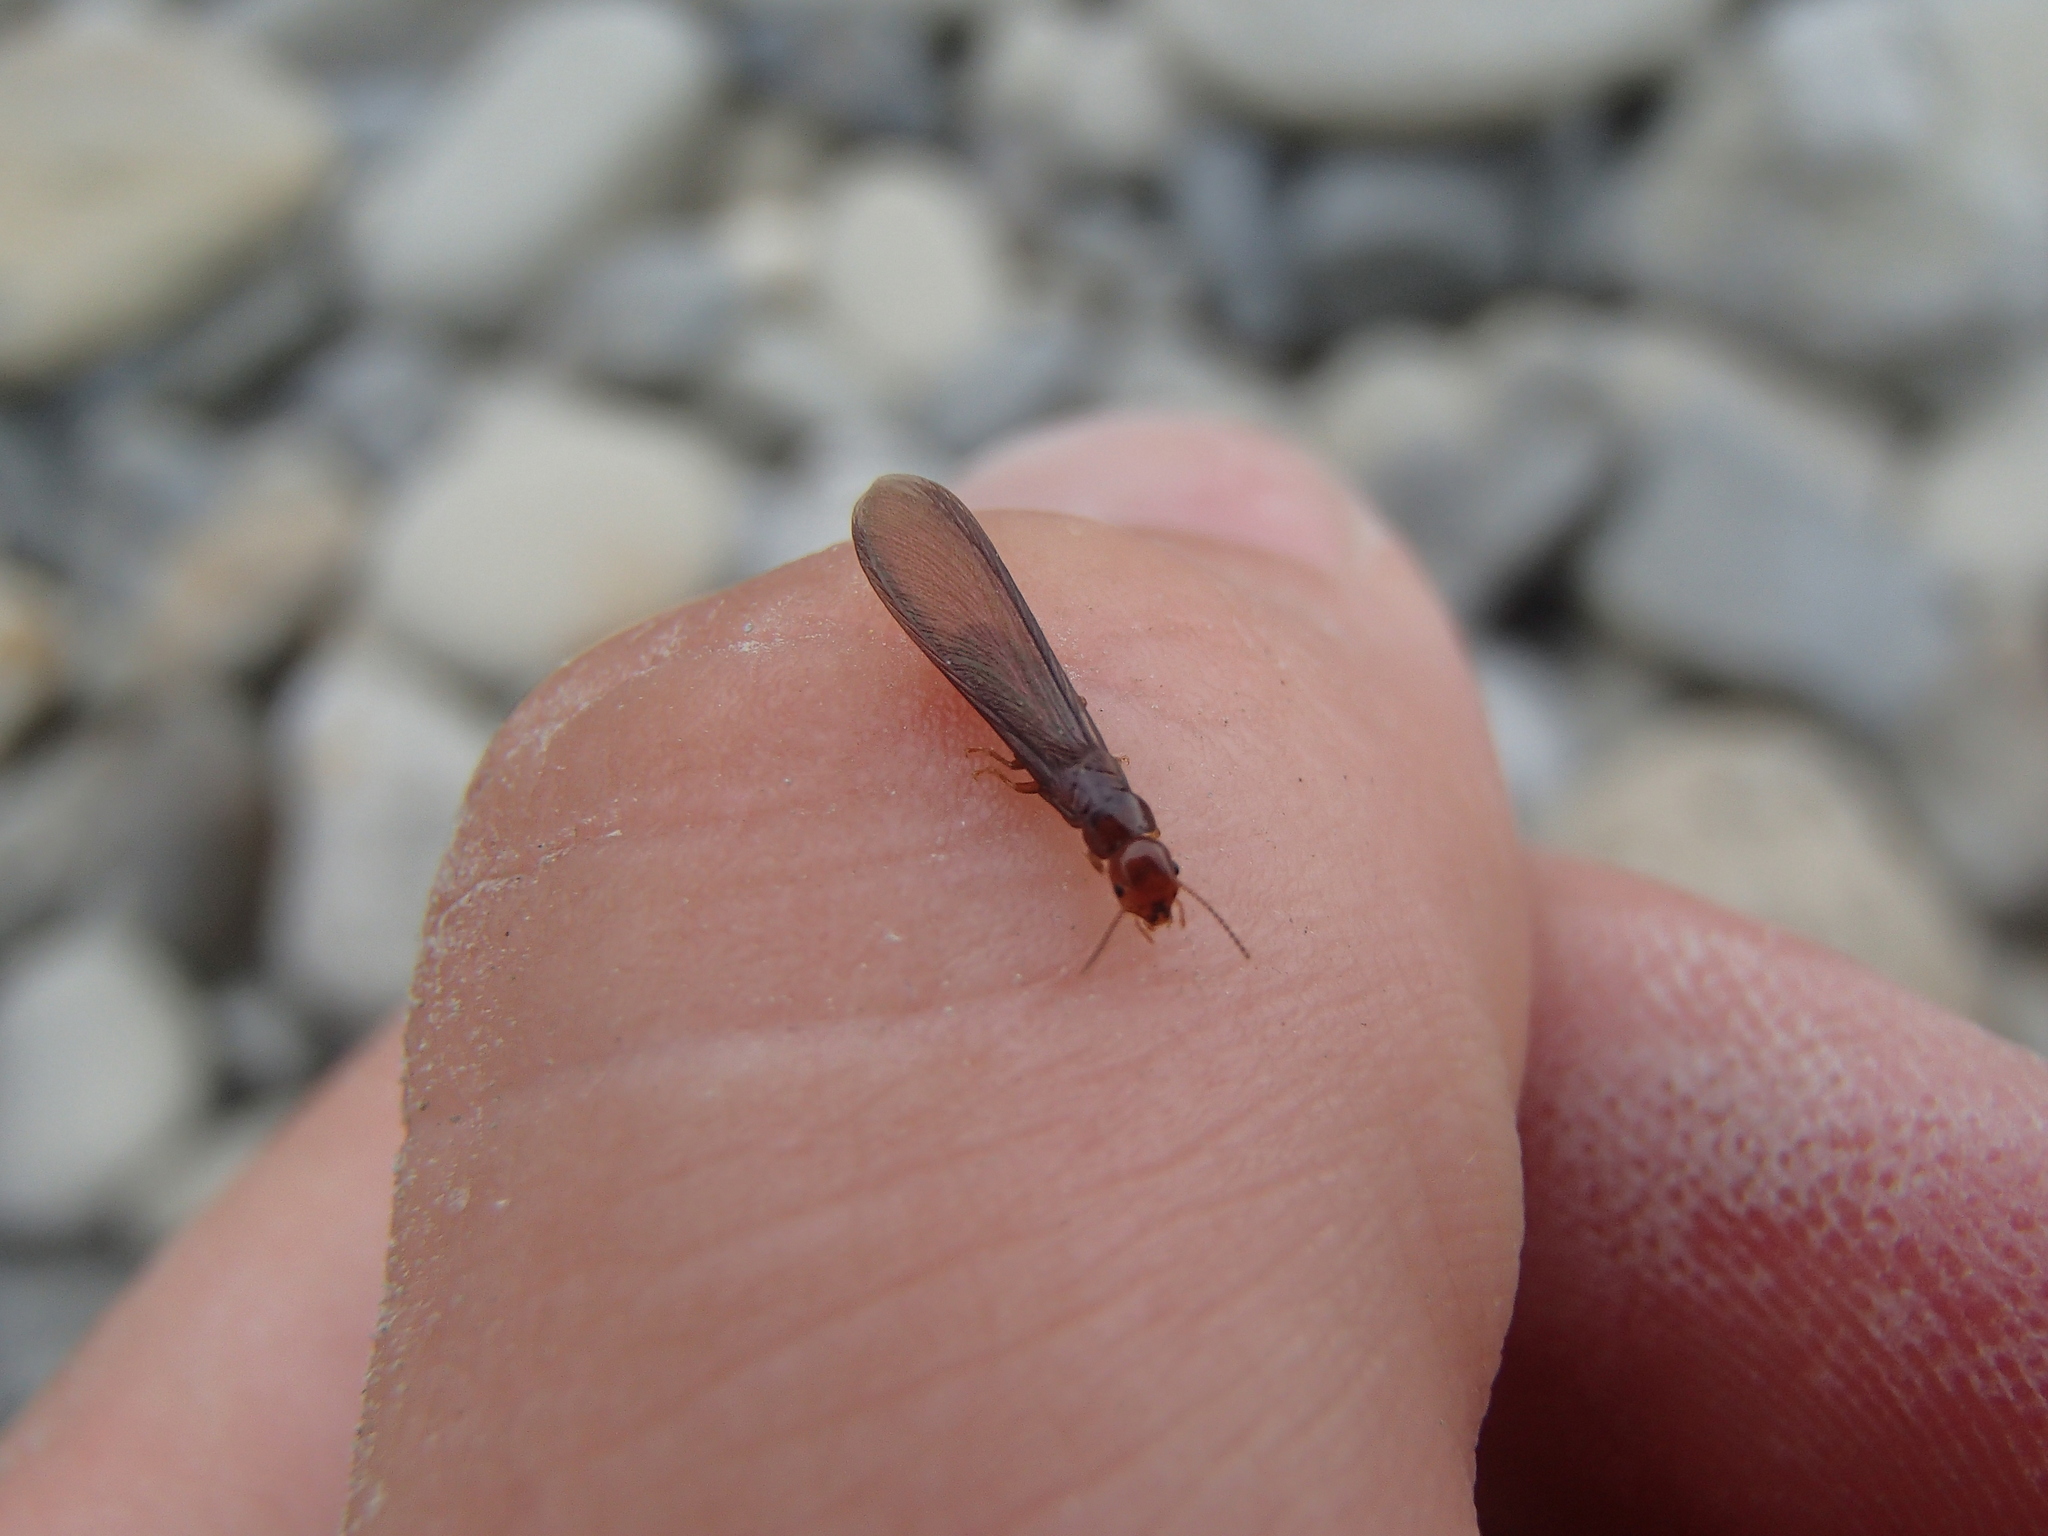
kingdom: Animalia
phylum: Arthropoda
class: Insecta
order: Blattodea
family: Kalotermitidae
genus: Kalotermes
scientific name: Kalotermes brouni
